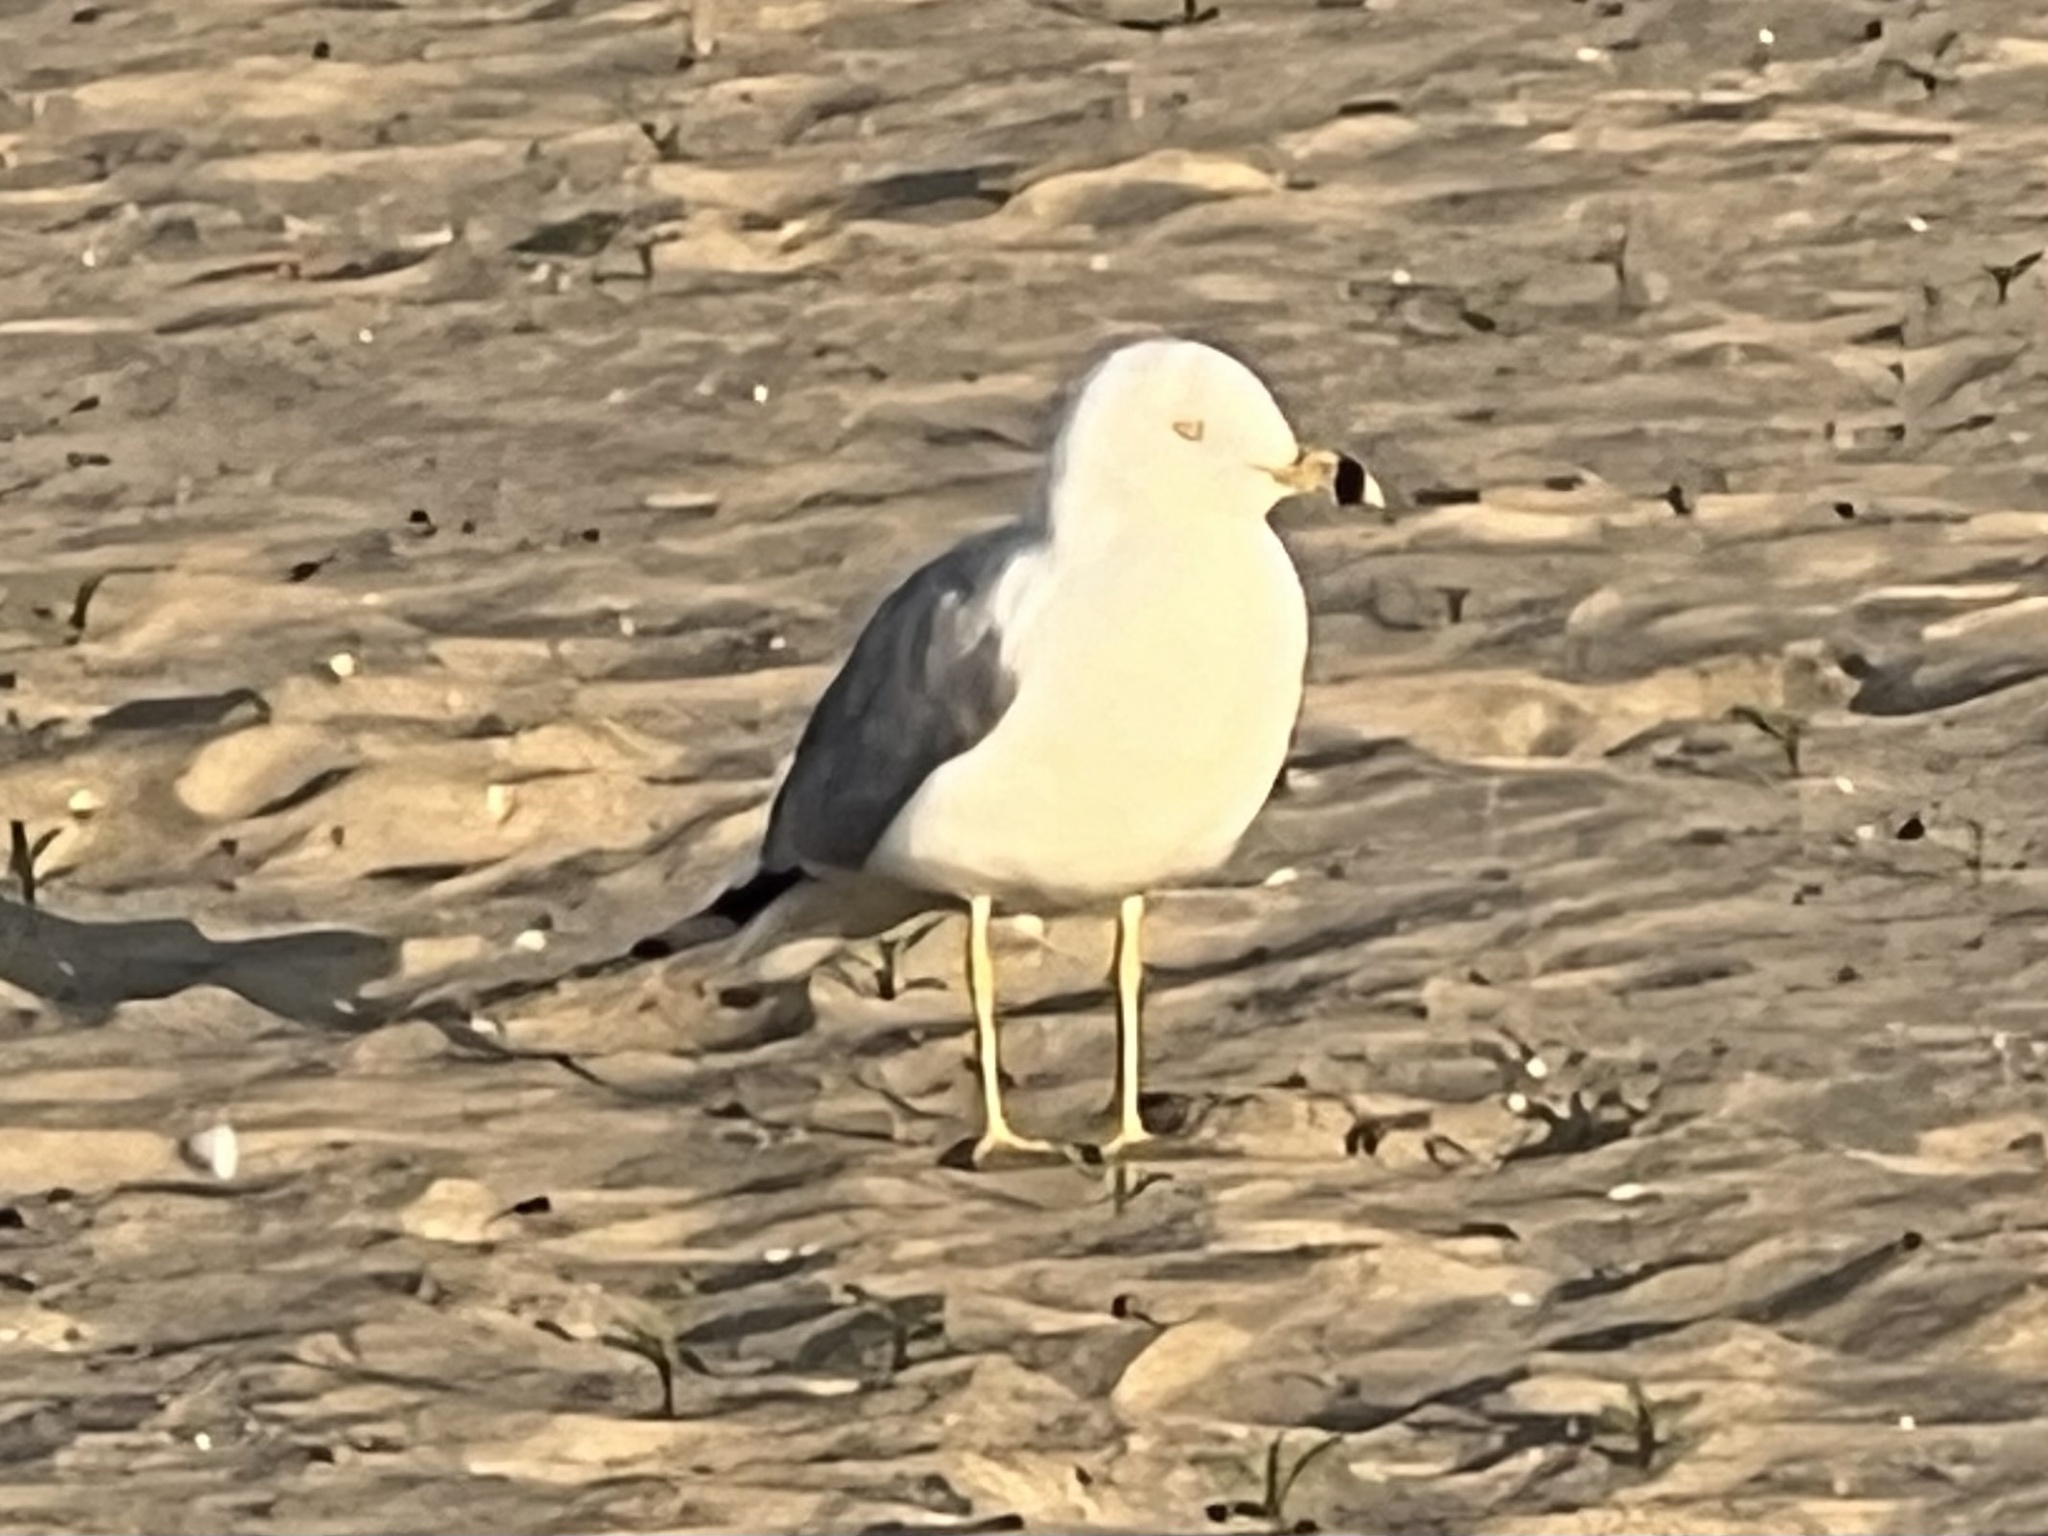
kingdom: Animalia
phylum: Chordata
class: Aves
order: Charadriiformes
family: Laridae
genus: Larus
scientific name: Larus delawarensis
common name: Ring-billed gull
